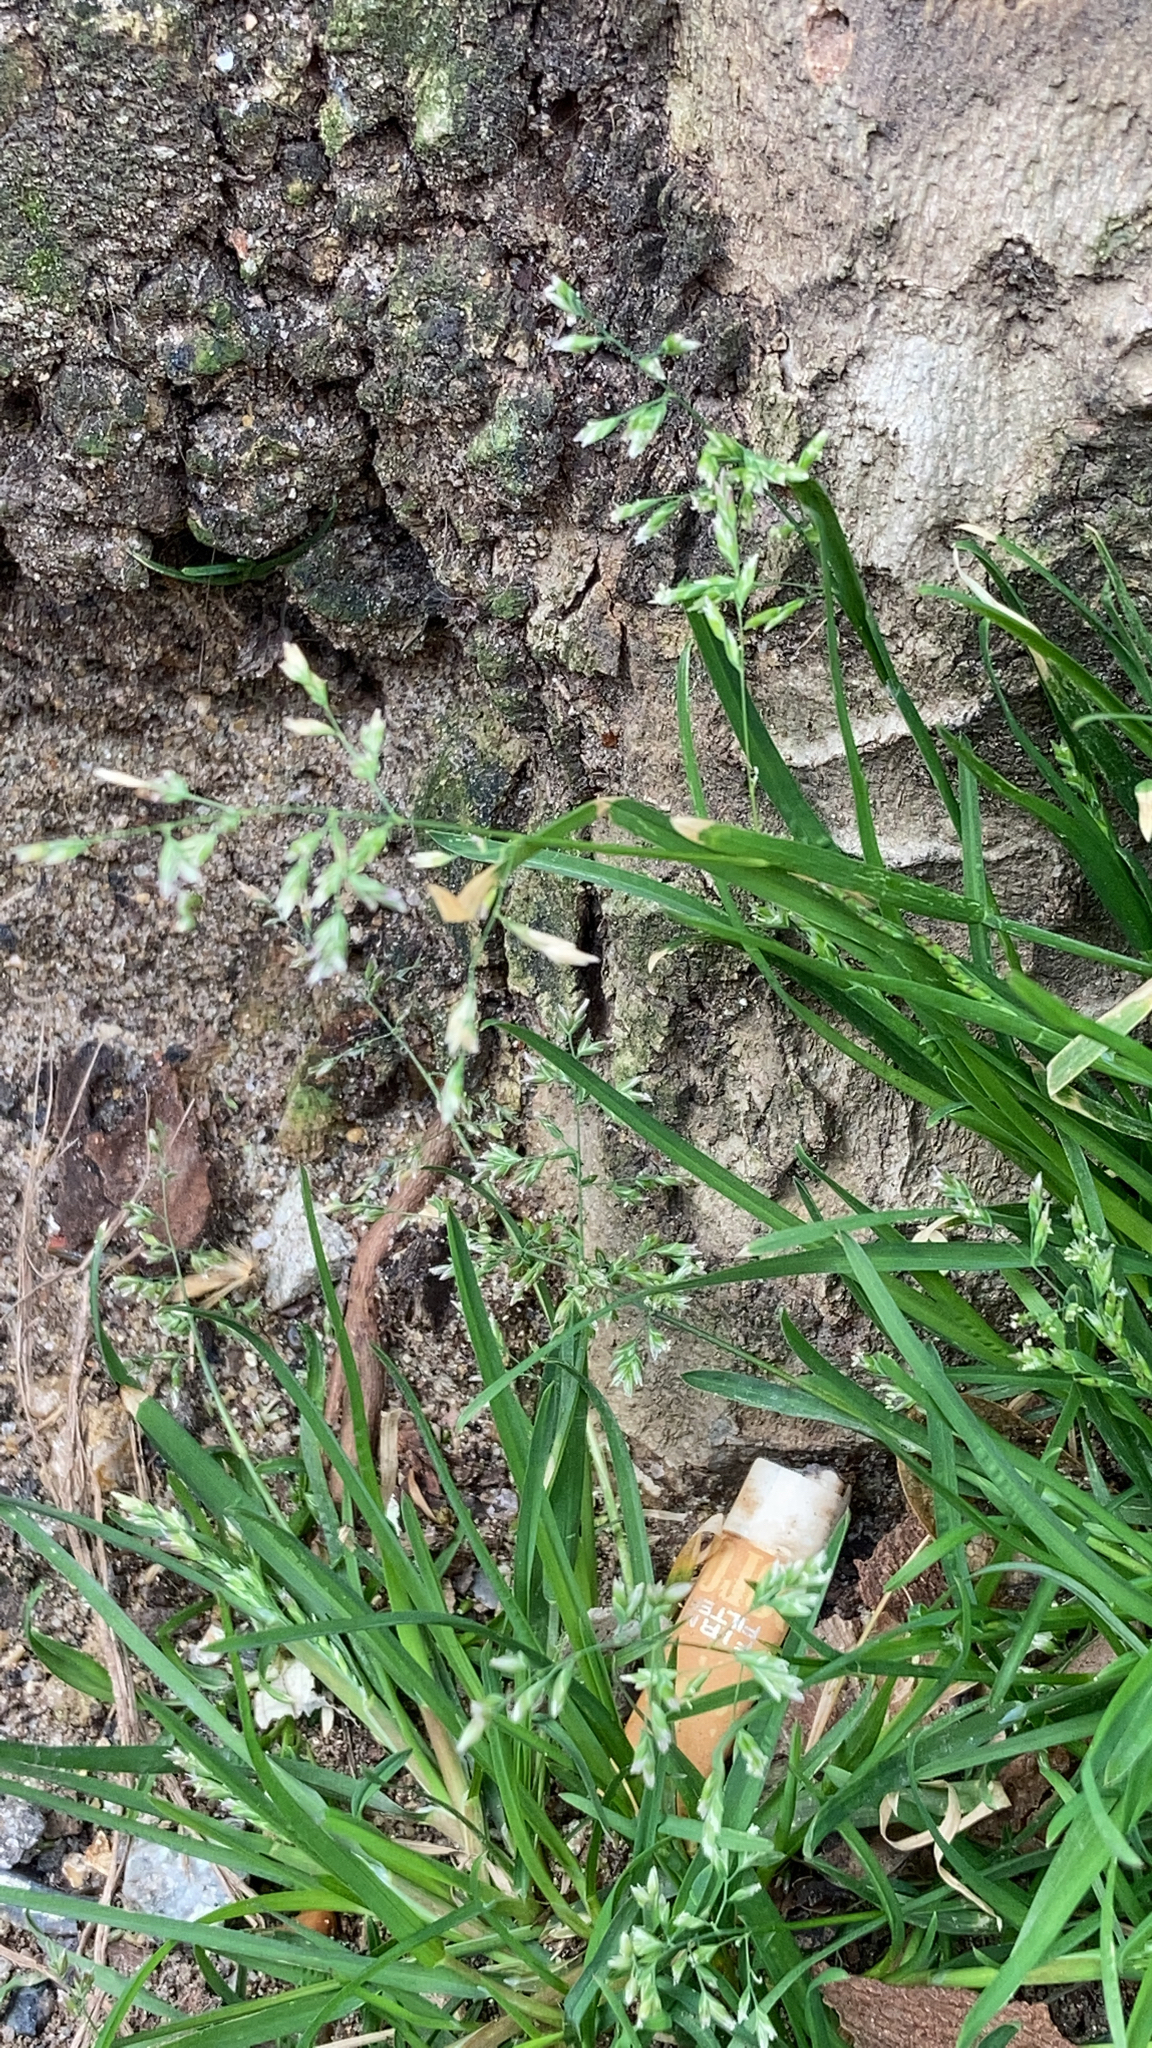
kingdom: Plantae
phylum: Tracheophyta
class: Liliopsida
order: Poales
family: Poaceae
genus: Poa
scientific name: Poa annua
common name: Annual bluegrass
